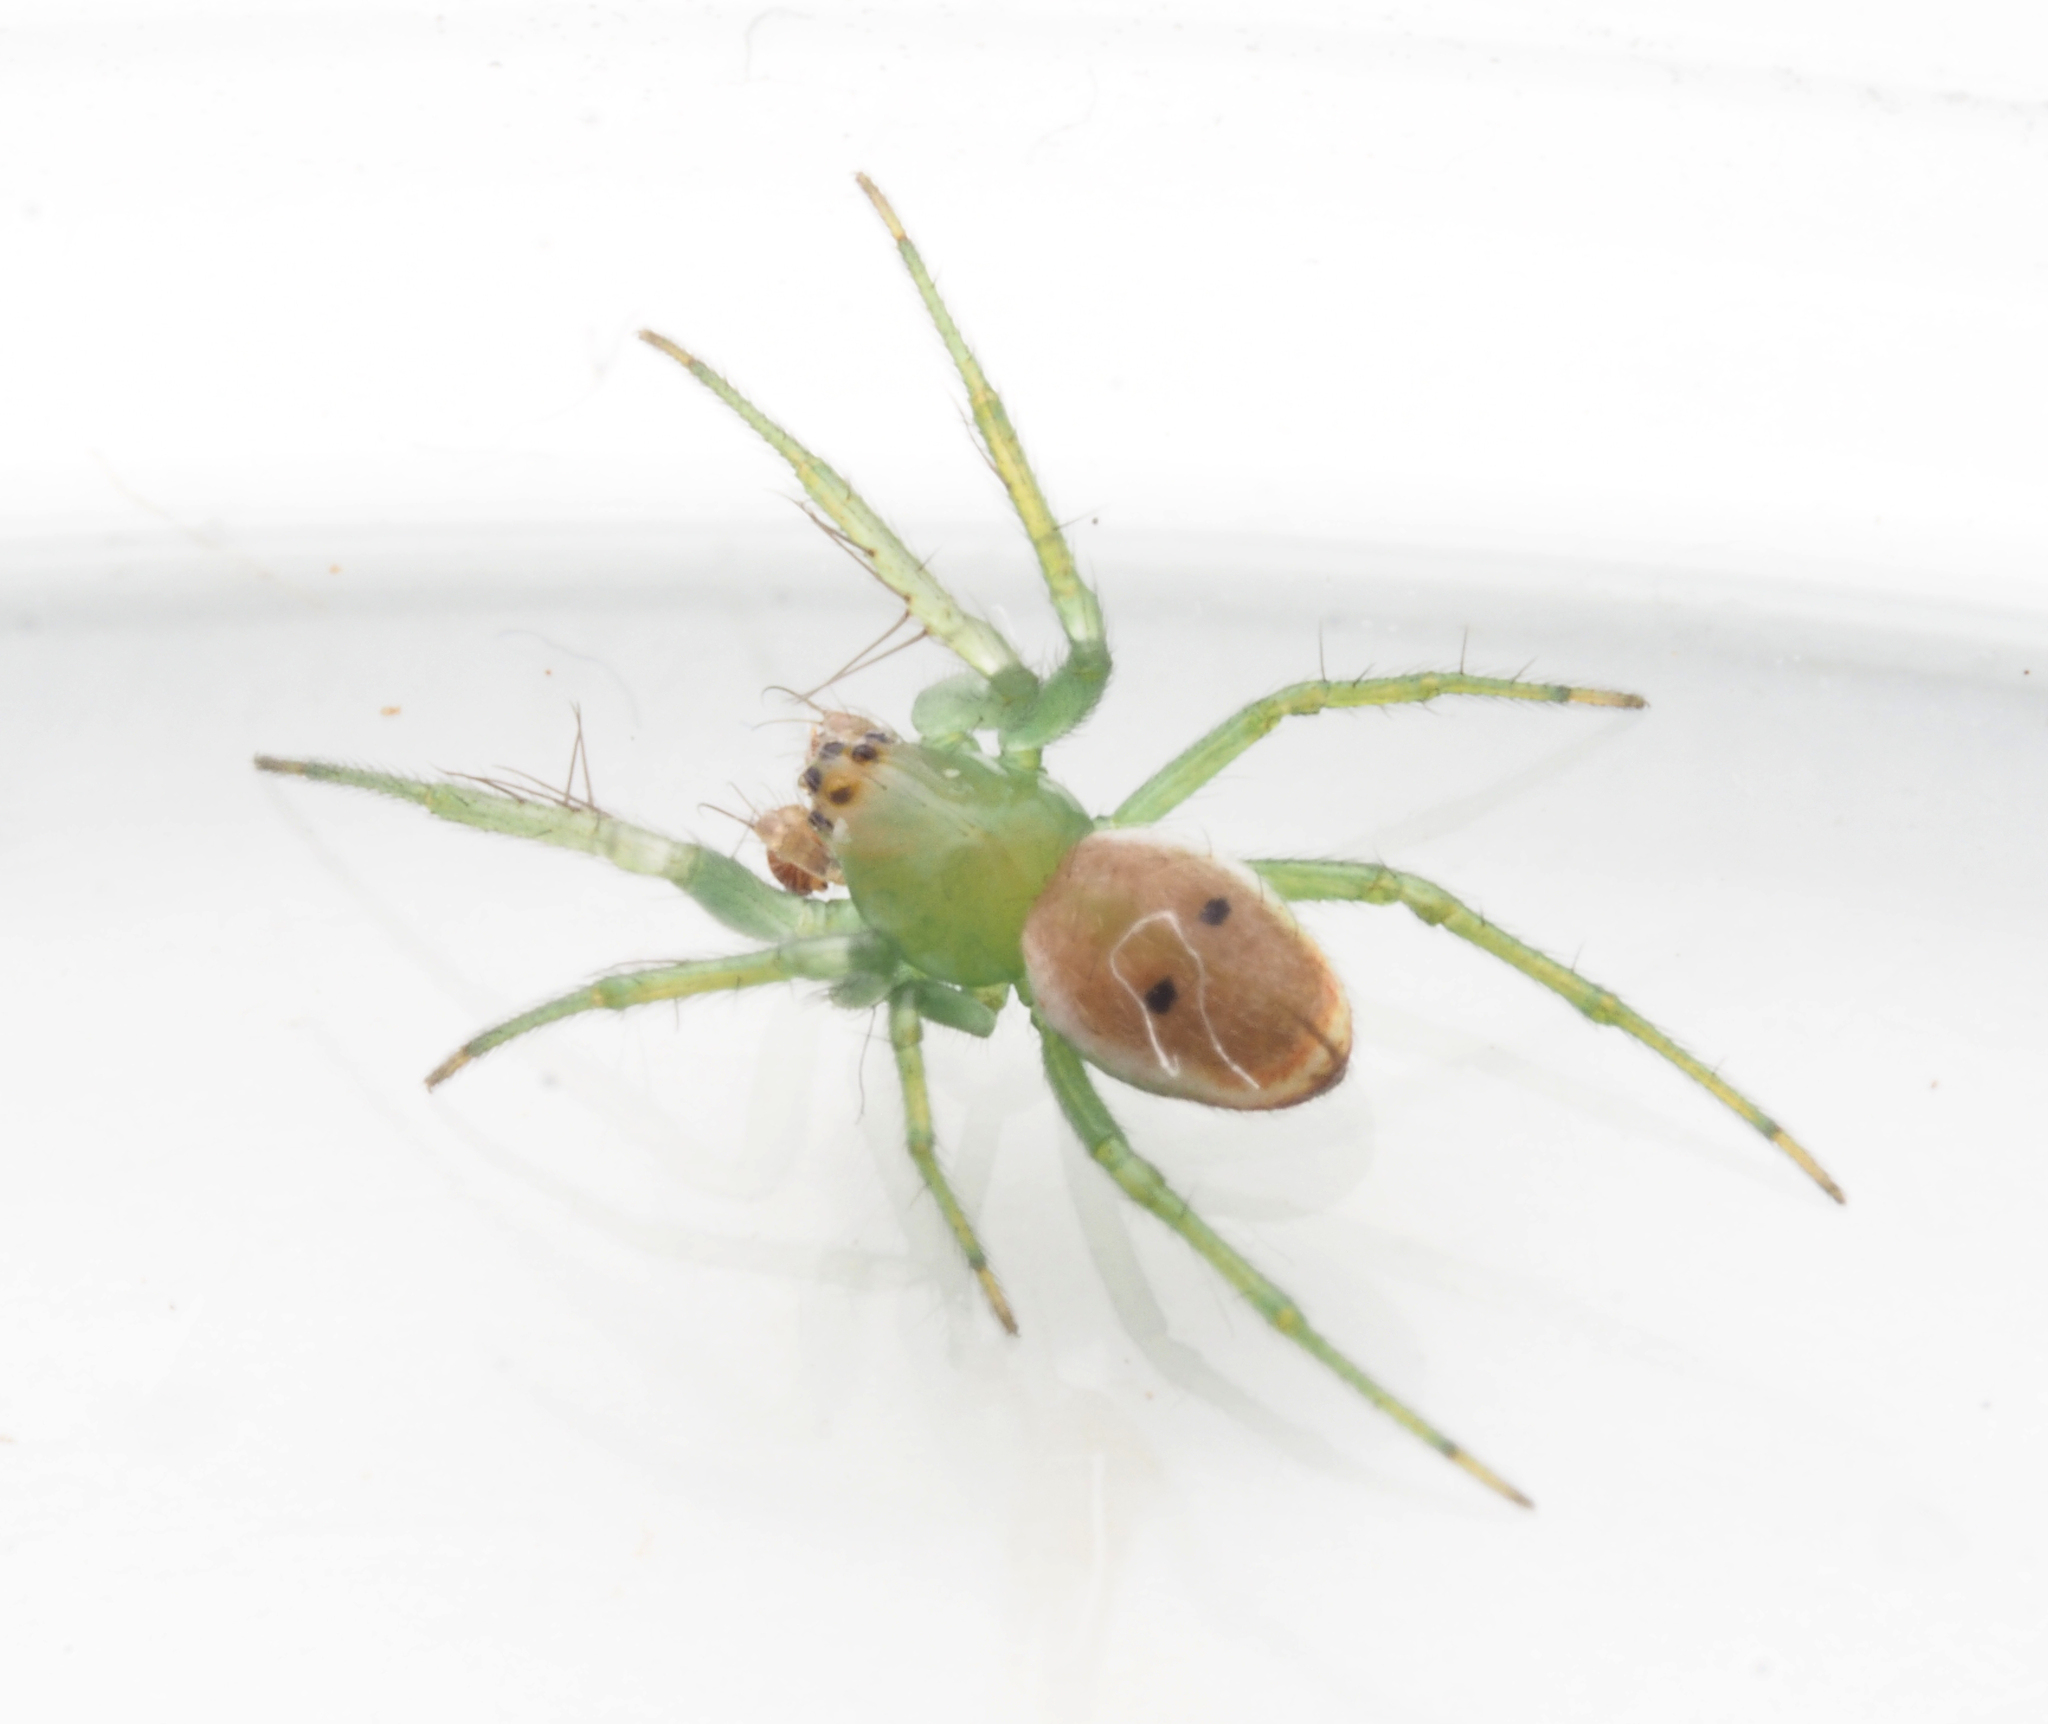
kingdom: Animalia
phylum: Arthropoda
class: Arachnida
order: Araneae
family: Araneidae
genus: Araneus
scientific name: Araneus transversus
